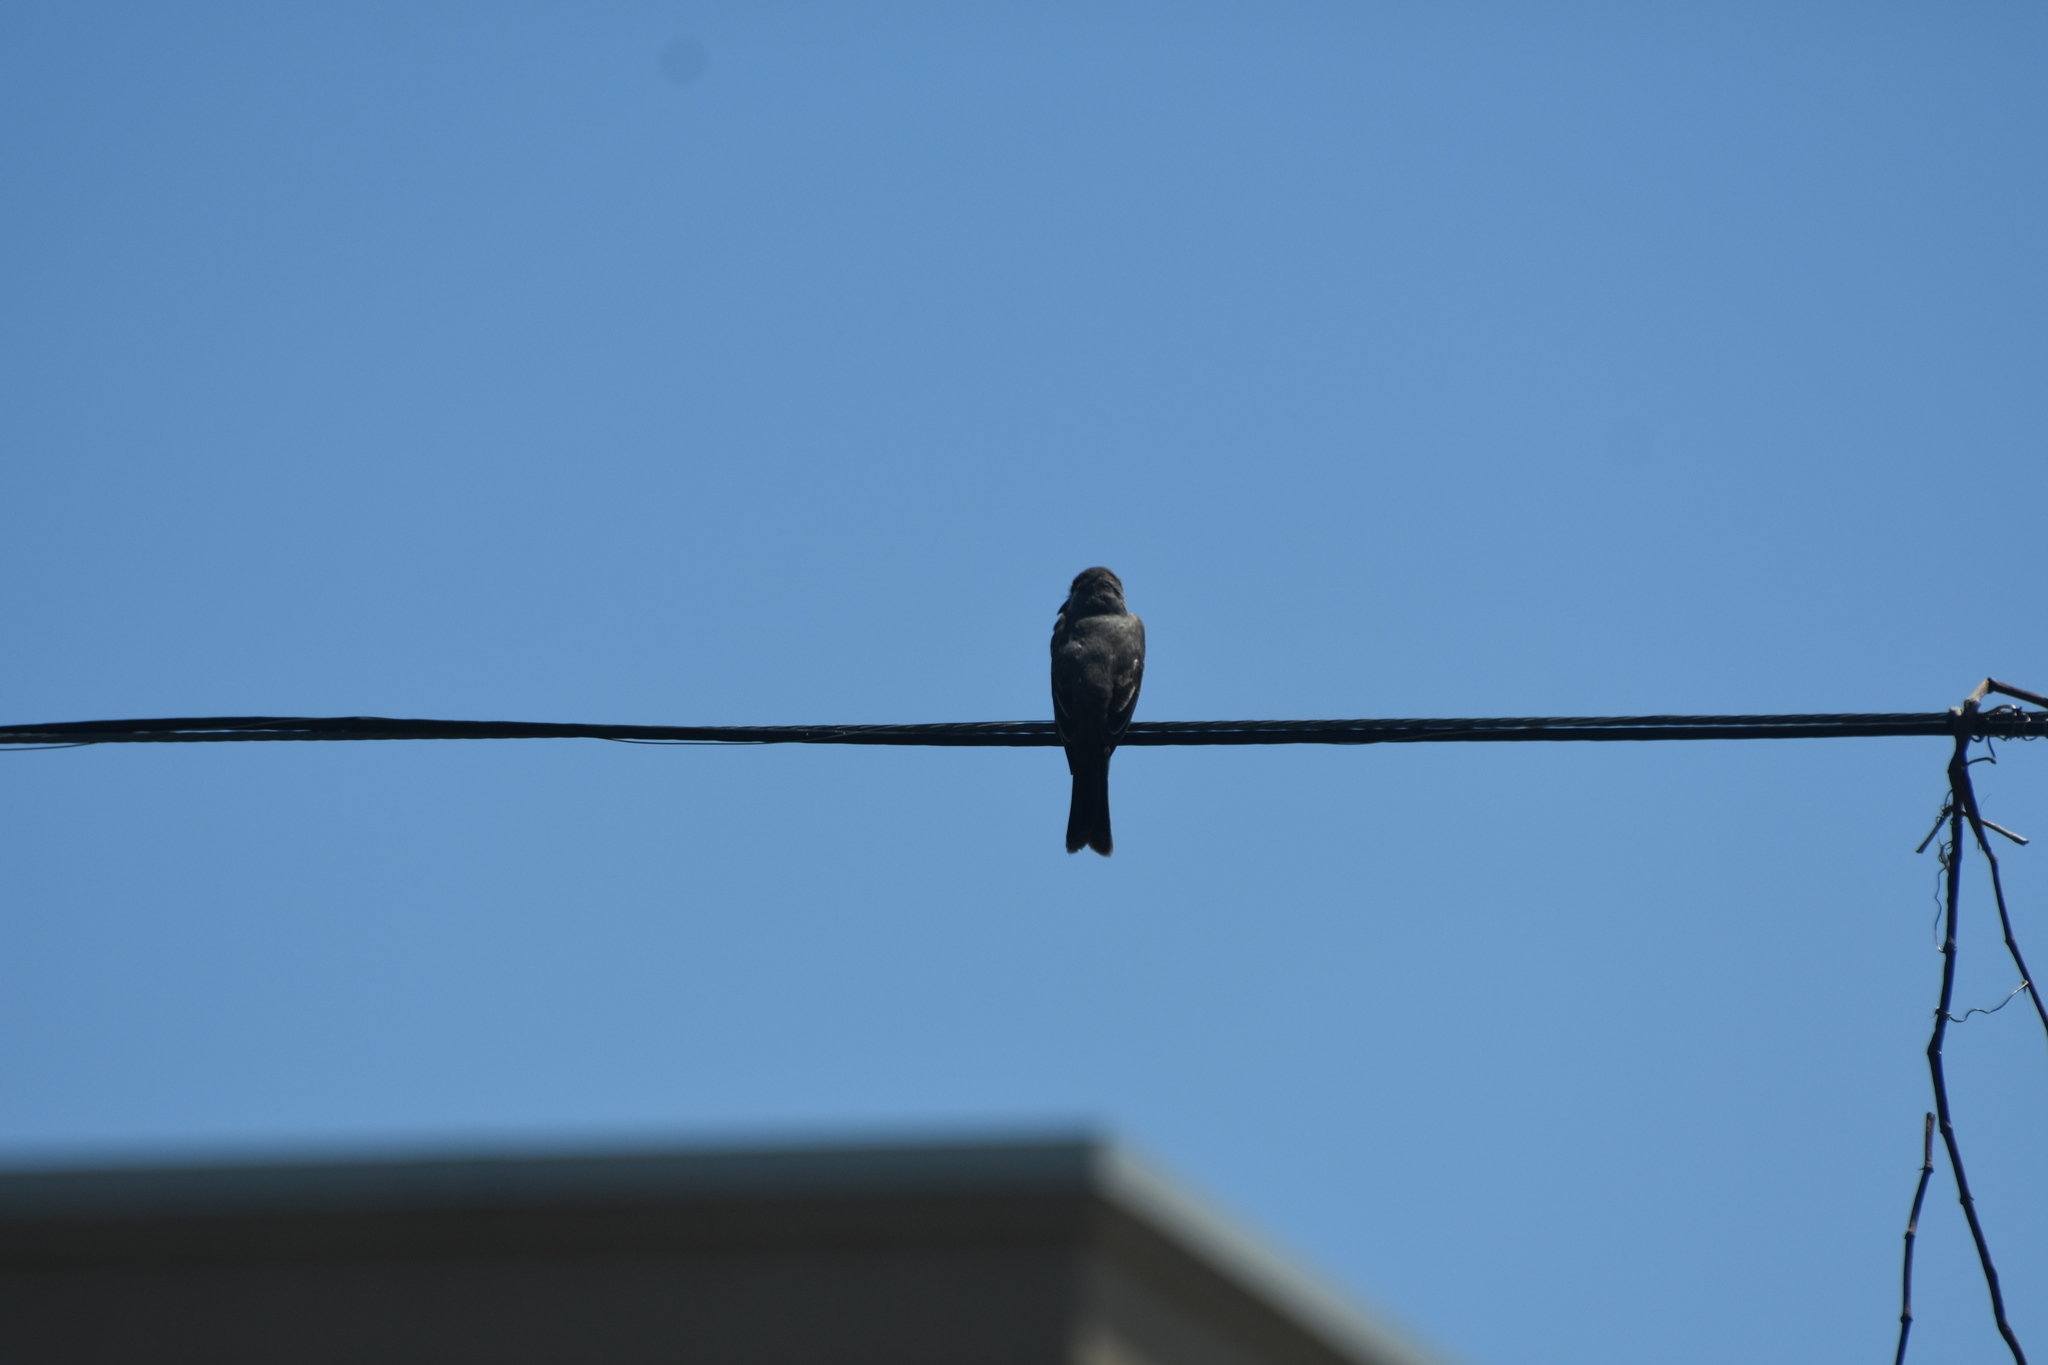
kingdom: Animalia
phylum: Chordata
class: Aves
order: Passeriformes
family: Tyrannidae
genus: Tyrannus
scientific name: Tyrannus dominicensis
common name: Gray kingbird
